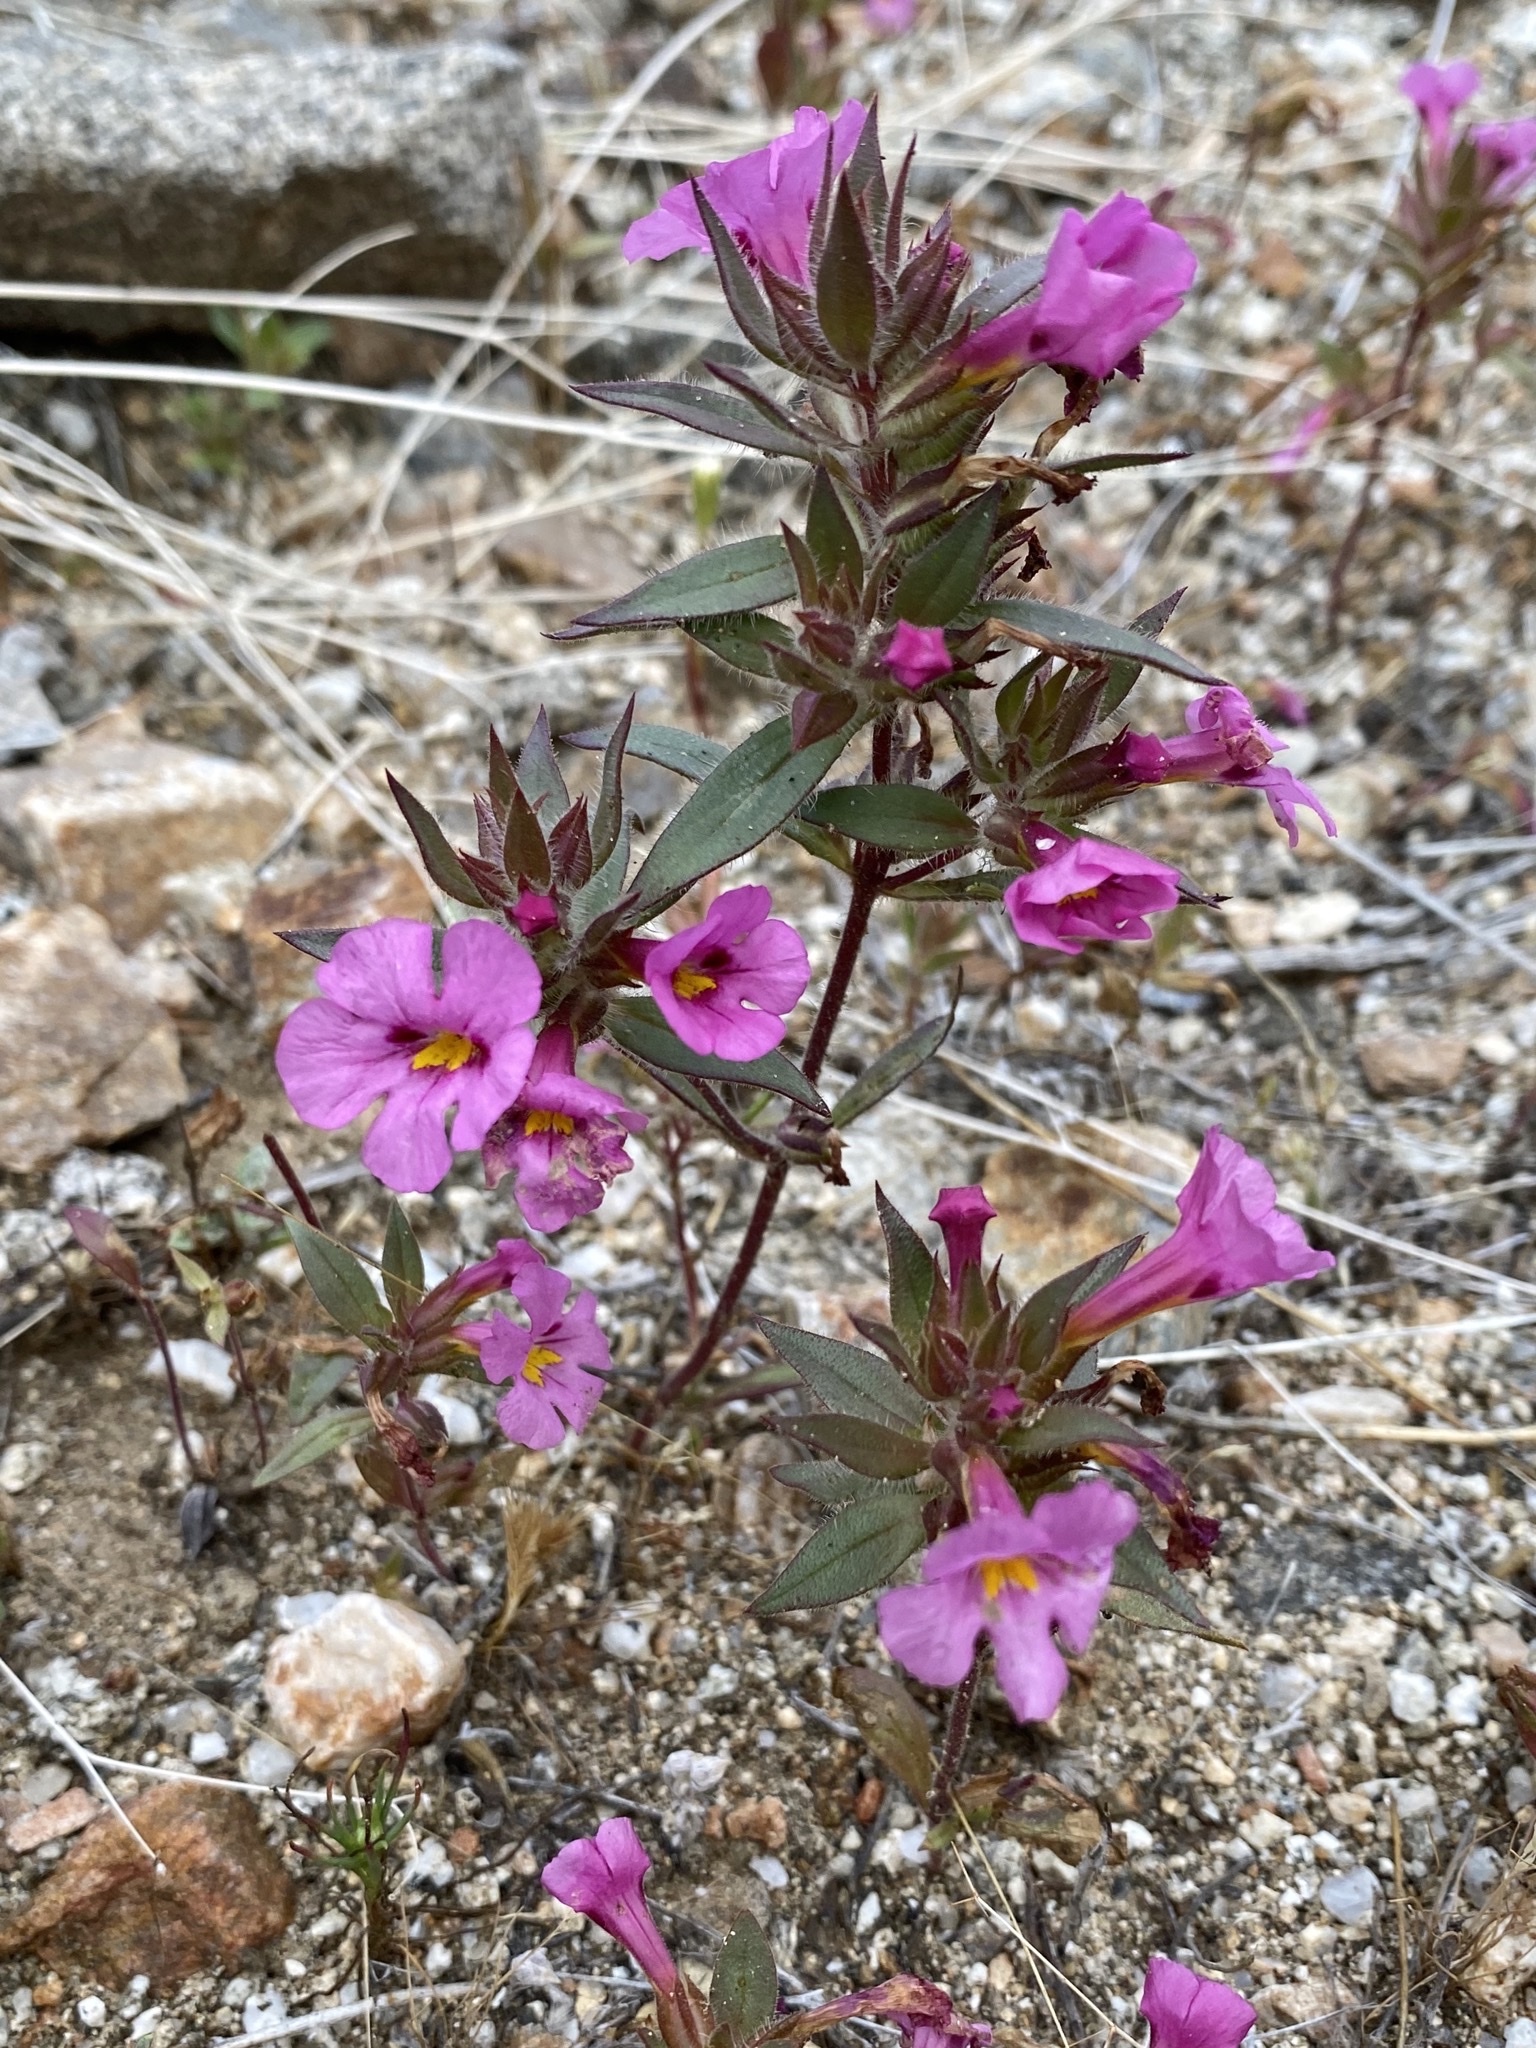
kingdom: Plantae
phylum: Tracheophyta
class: Magnoliopsida
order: Lamiales
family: Phrymaceae
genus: Diplacus
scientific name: Diplacus bigelovii
